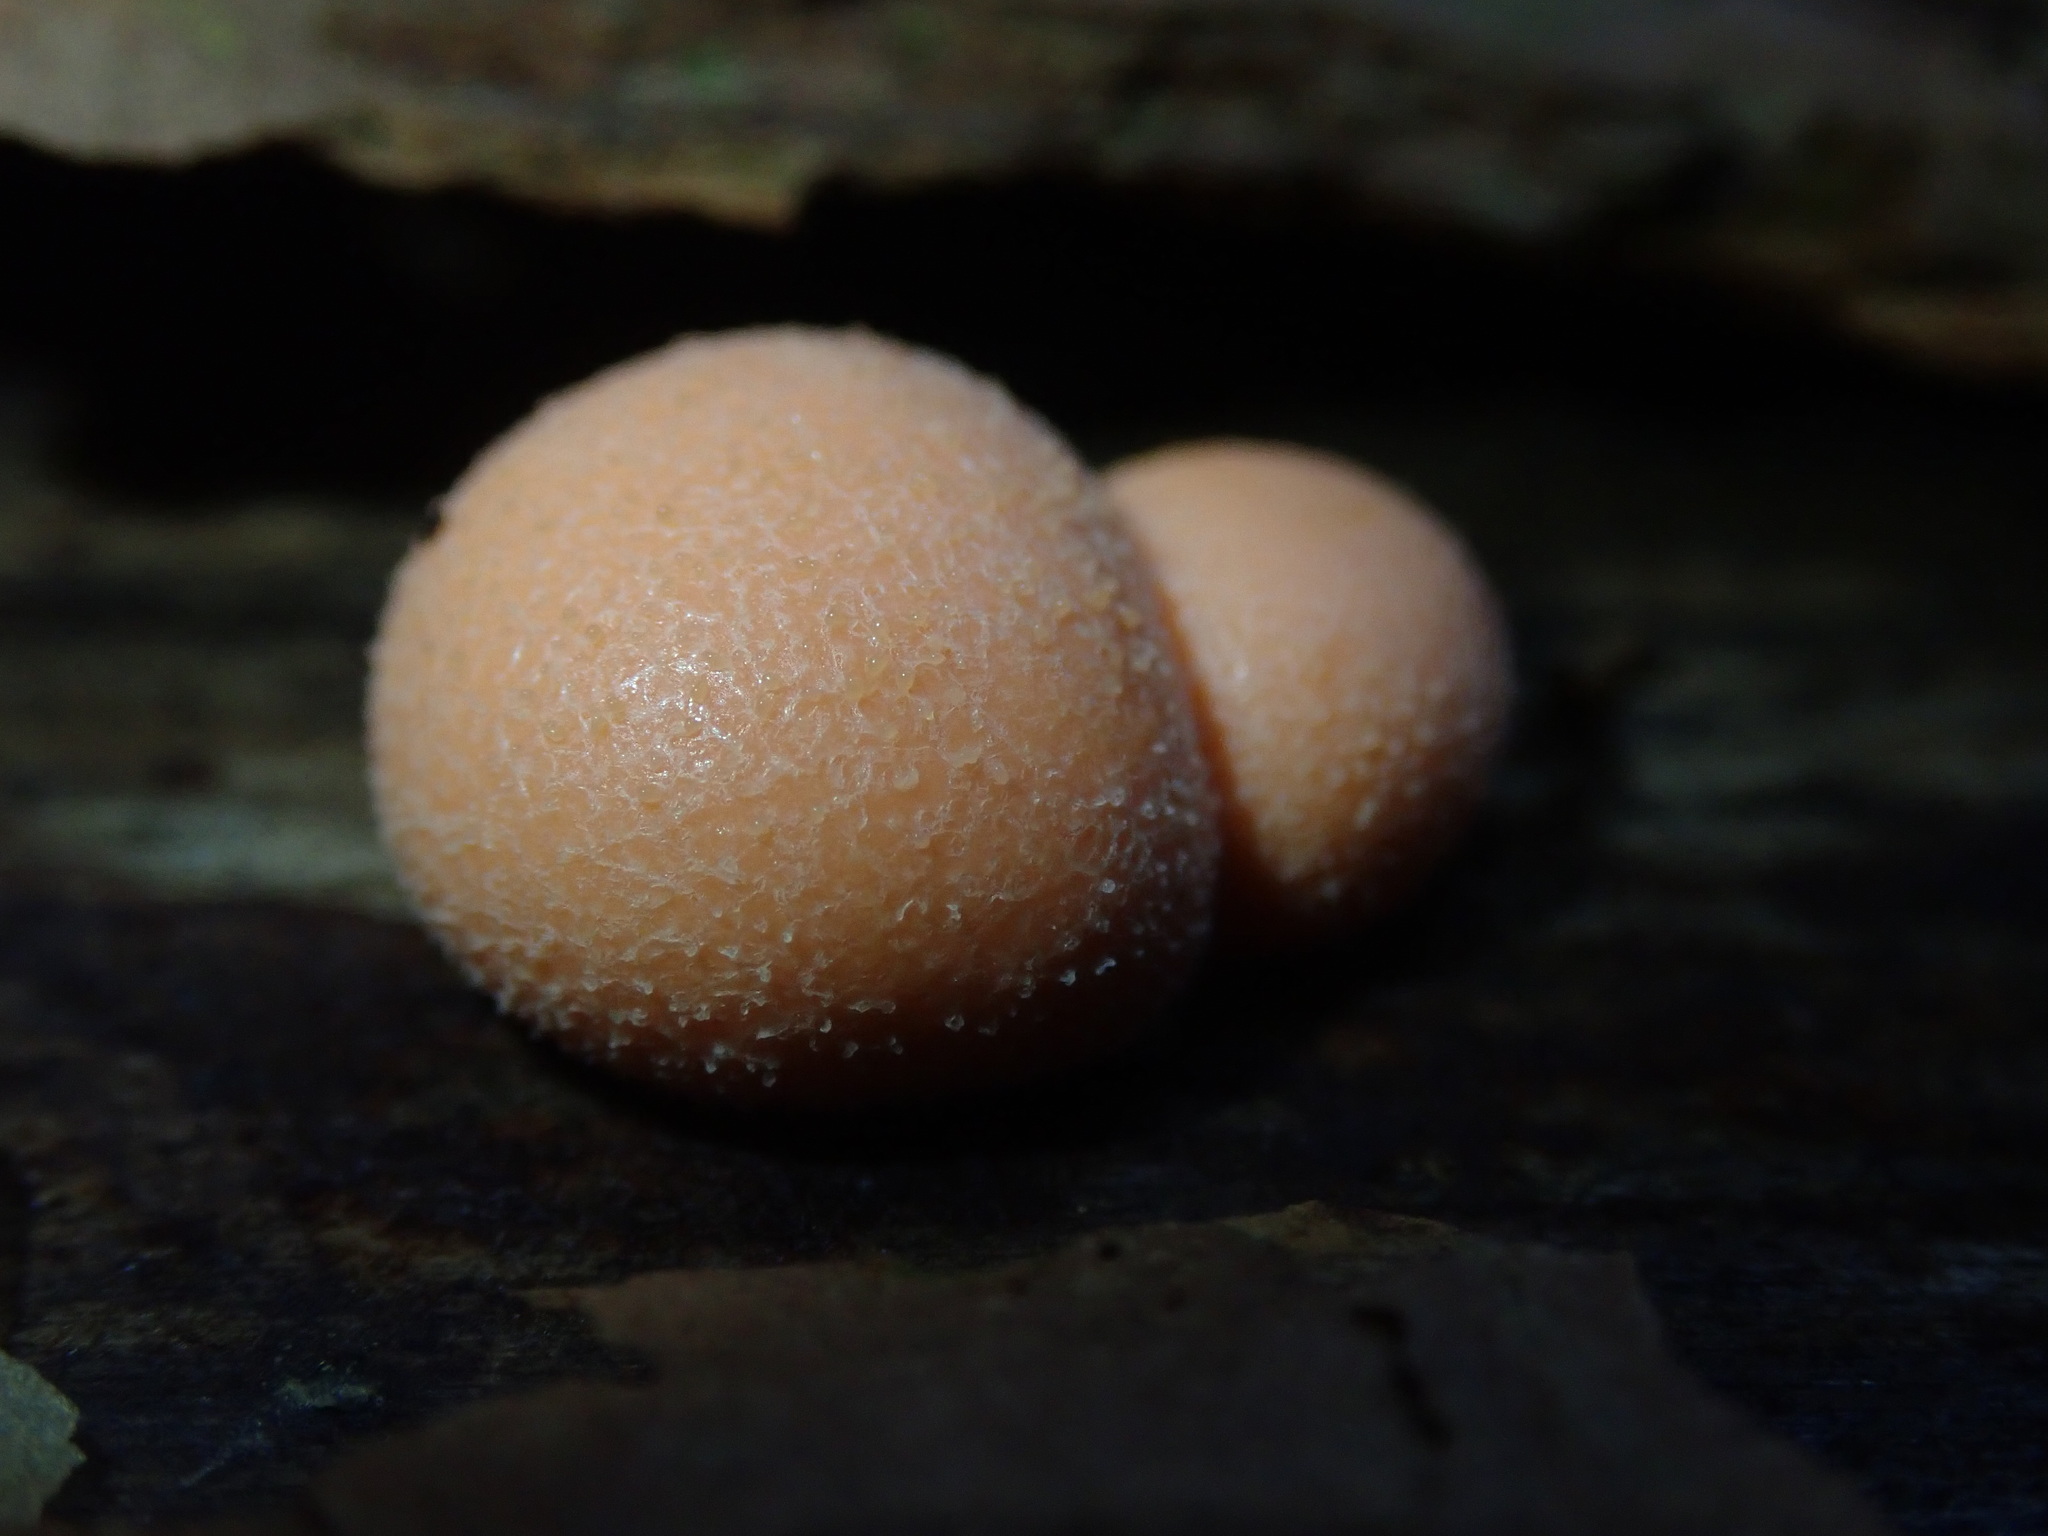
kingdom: Protozoa
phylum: Mycetozoa
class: Myxomycetes
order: Cribrariales
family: Tubiferaceae
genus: Lycogala
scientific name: Lycogala epidendrum
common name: Wolf's milk
